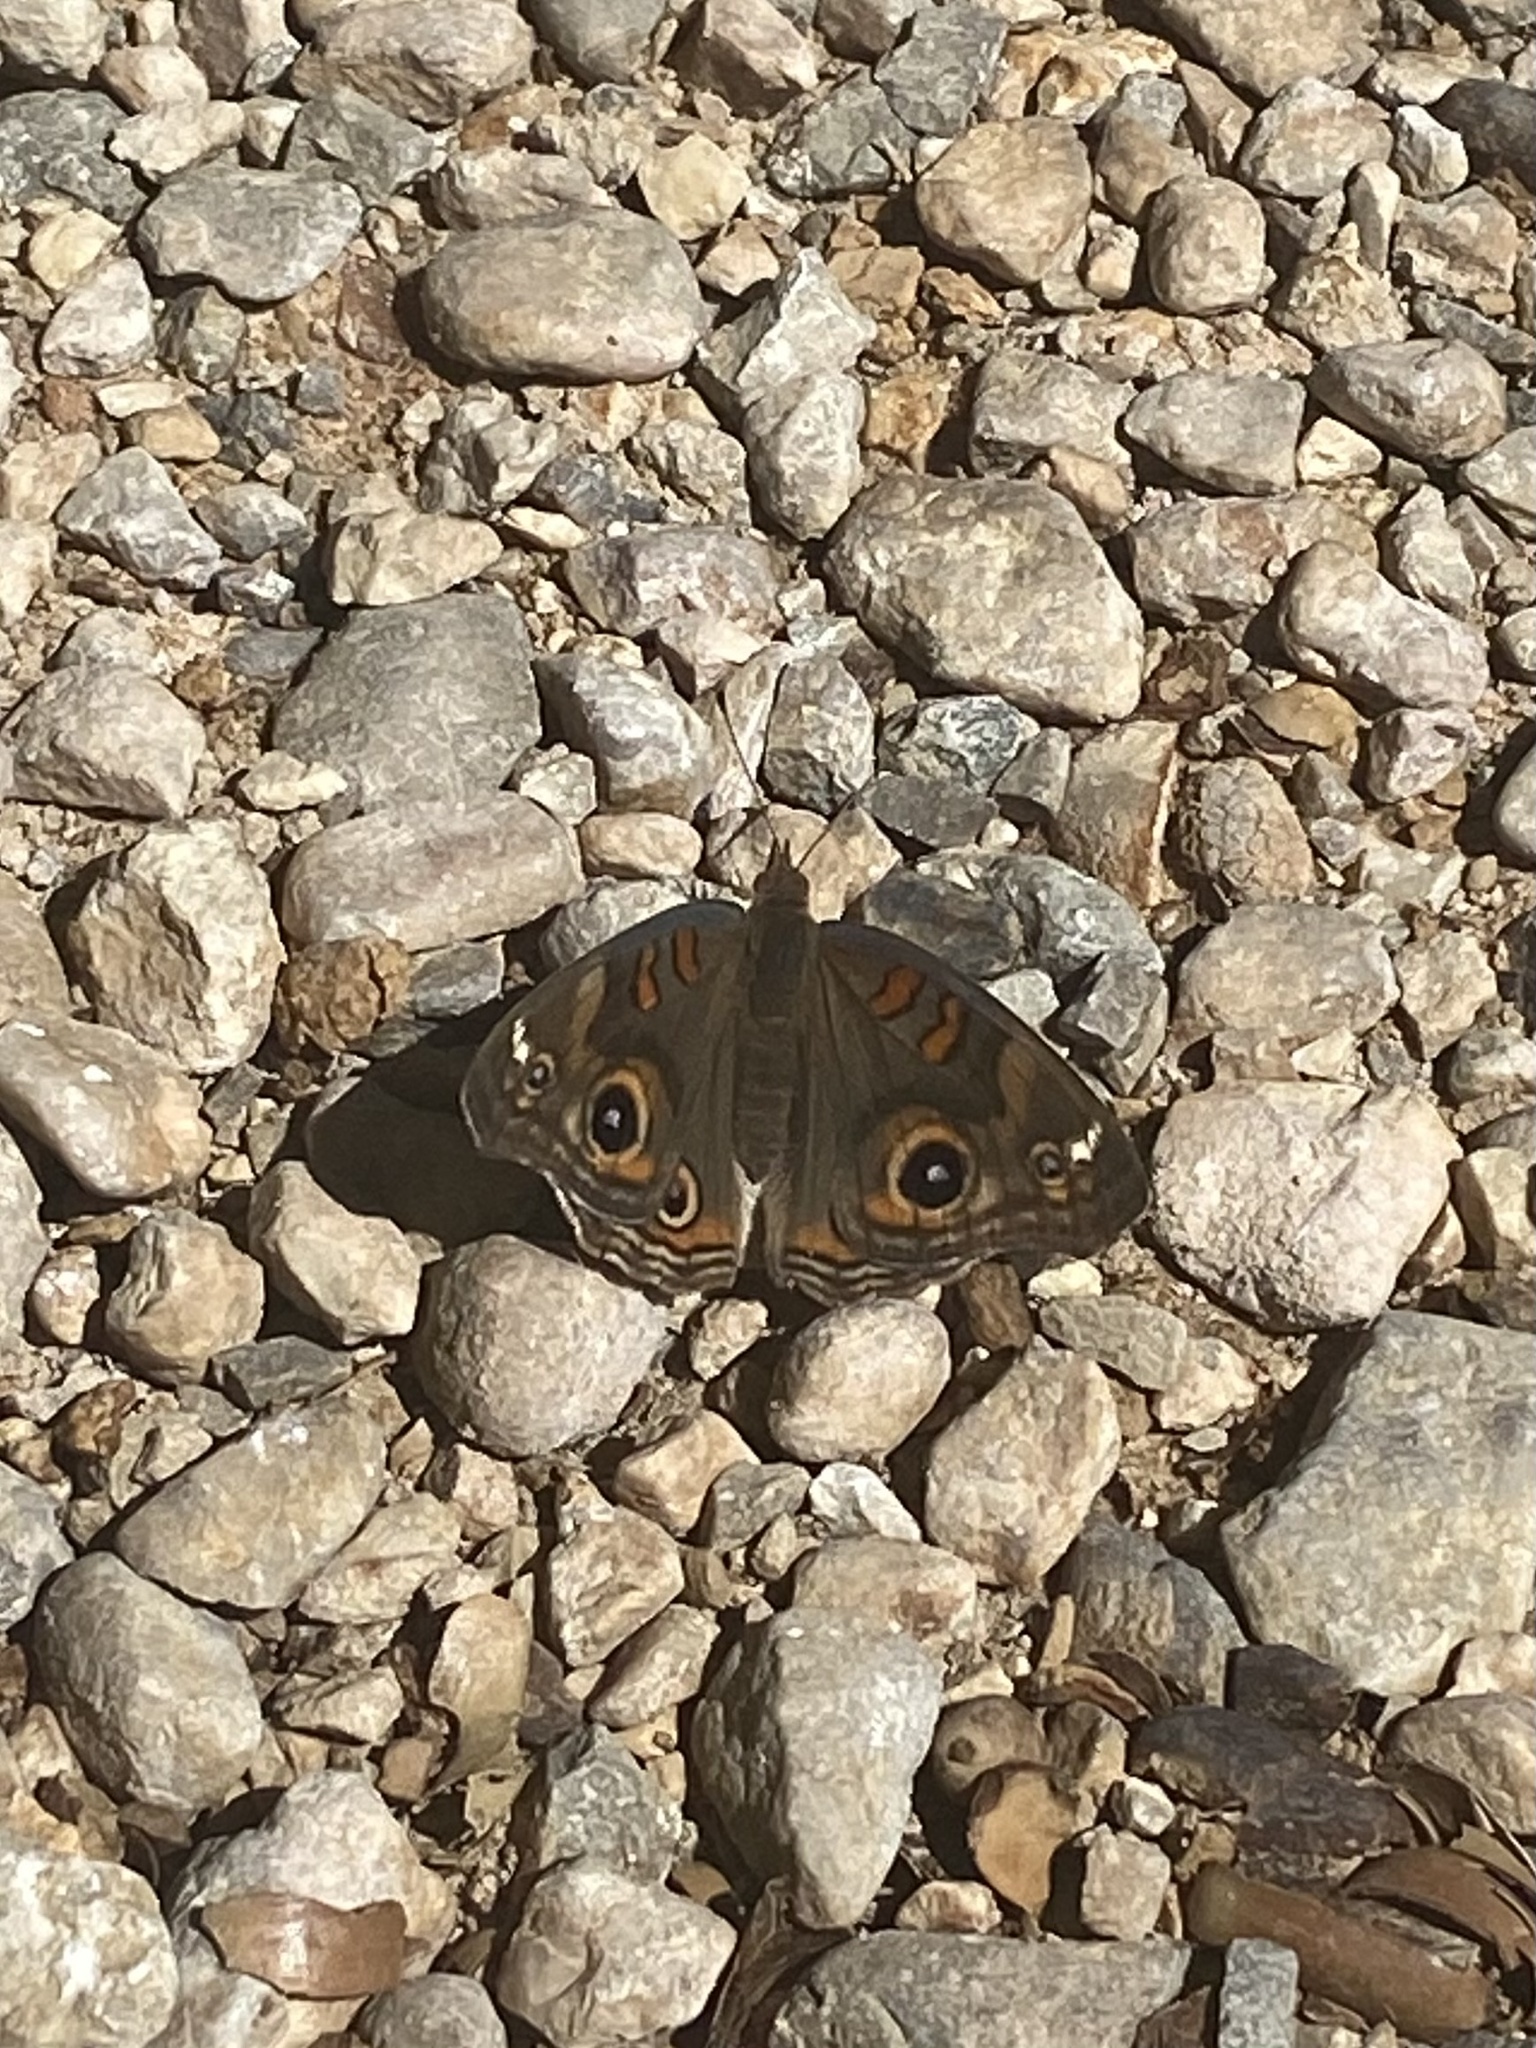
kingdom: Animalia
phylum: Arthropoda
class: Insecta
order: Lepidoptera
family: Nymphalidae
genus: Junonia
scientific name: Junonia grisea
